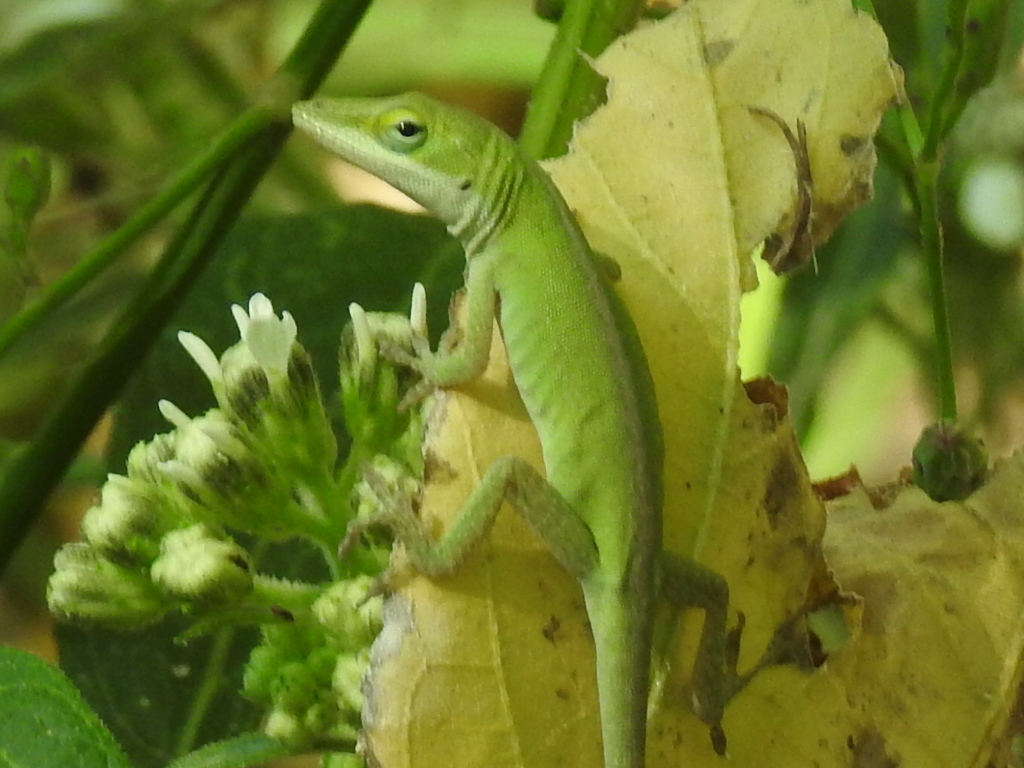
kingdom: Animalia
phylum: Chordata
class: Squamata
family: Dactyloidae
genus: Anolis
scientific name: Anolis carolinensis
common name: Green anole
